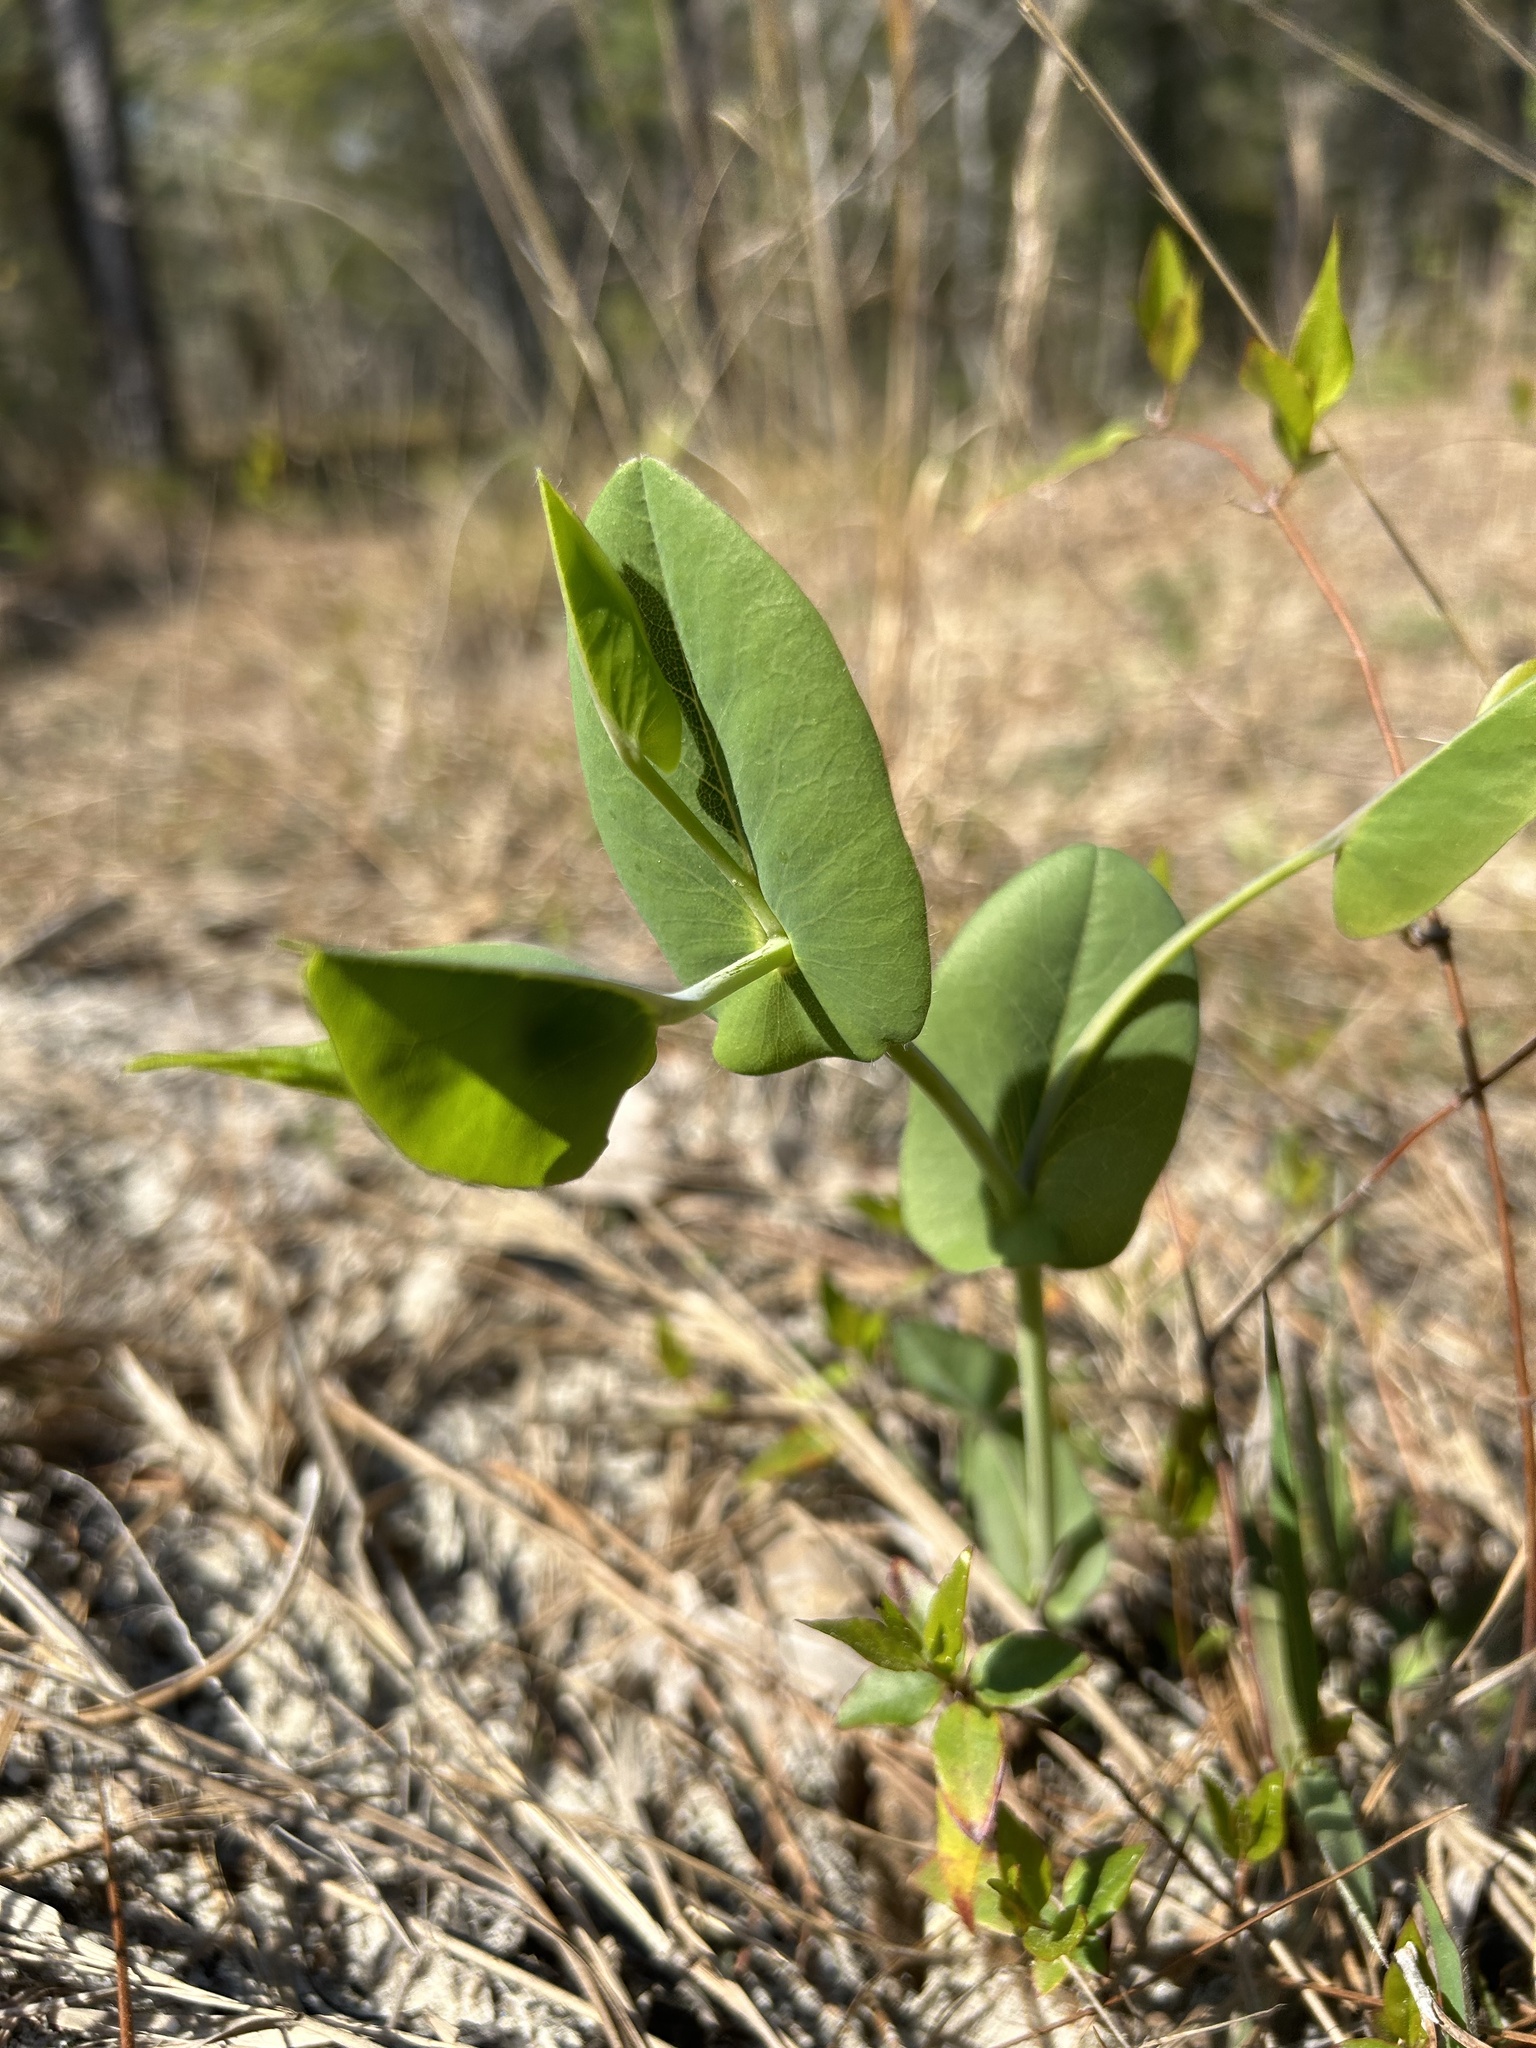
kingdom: Plantae
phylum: Tracheophyta
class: Magnoliopsida
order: Fabales
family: Fabaceae
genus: Baptisia
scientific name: Baptisia perfoliata
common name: Catbells
